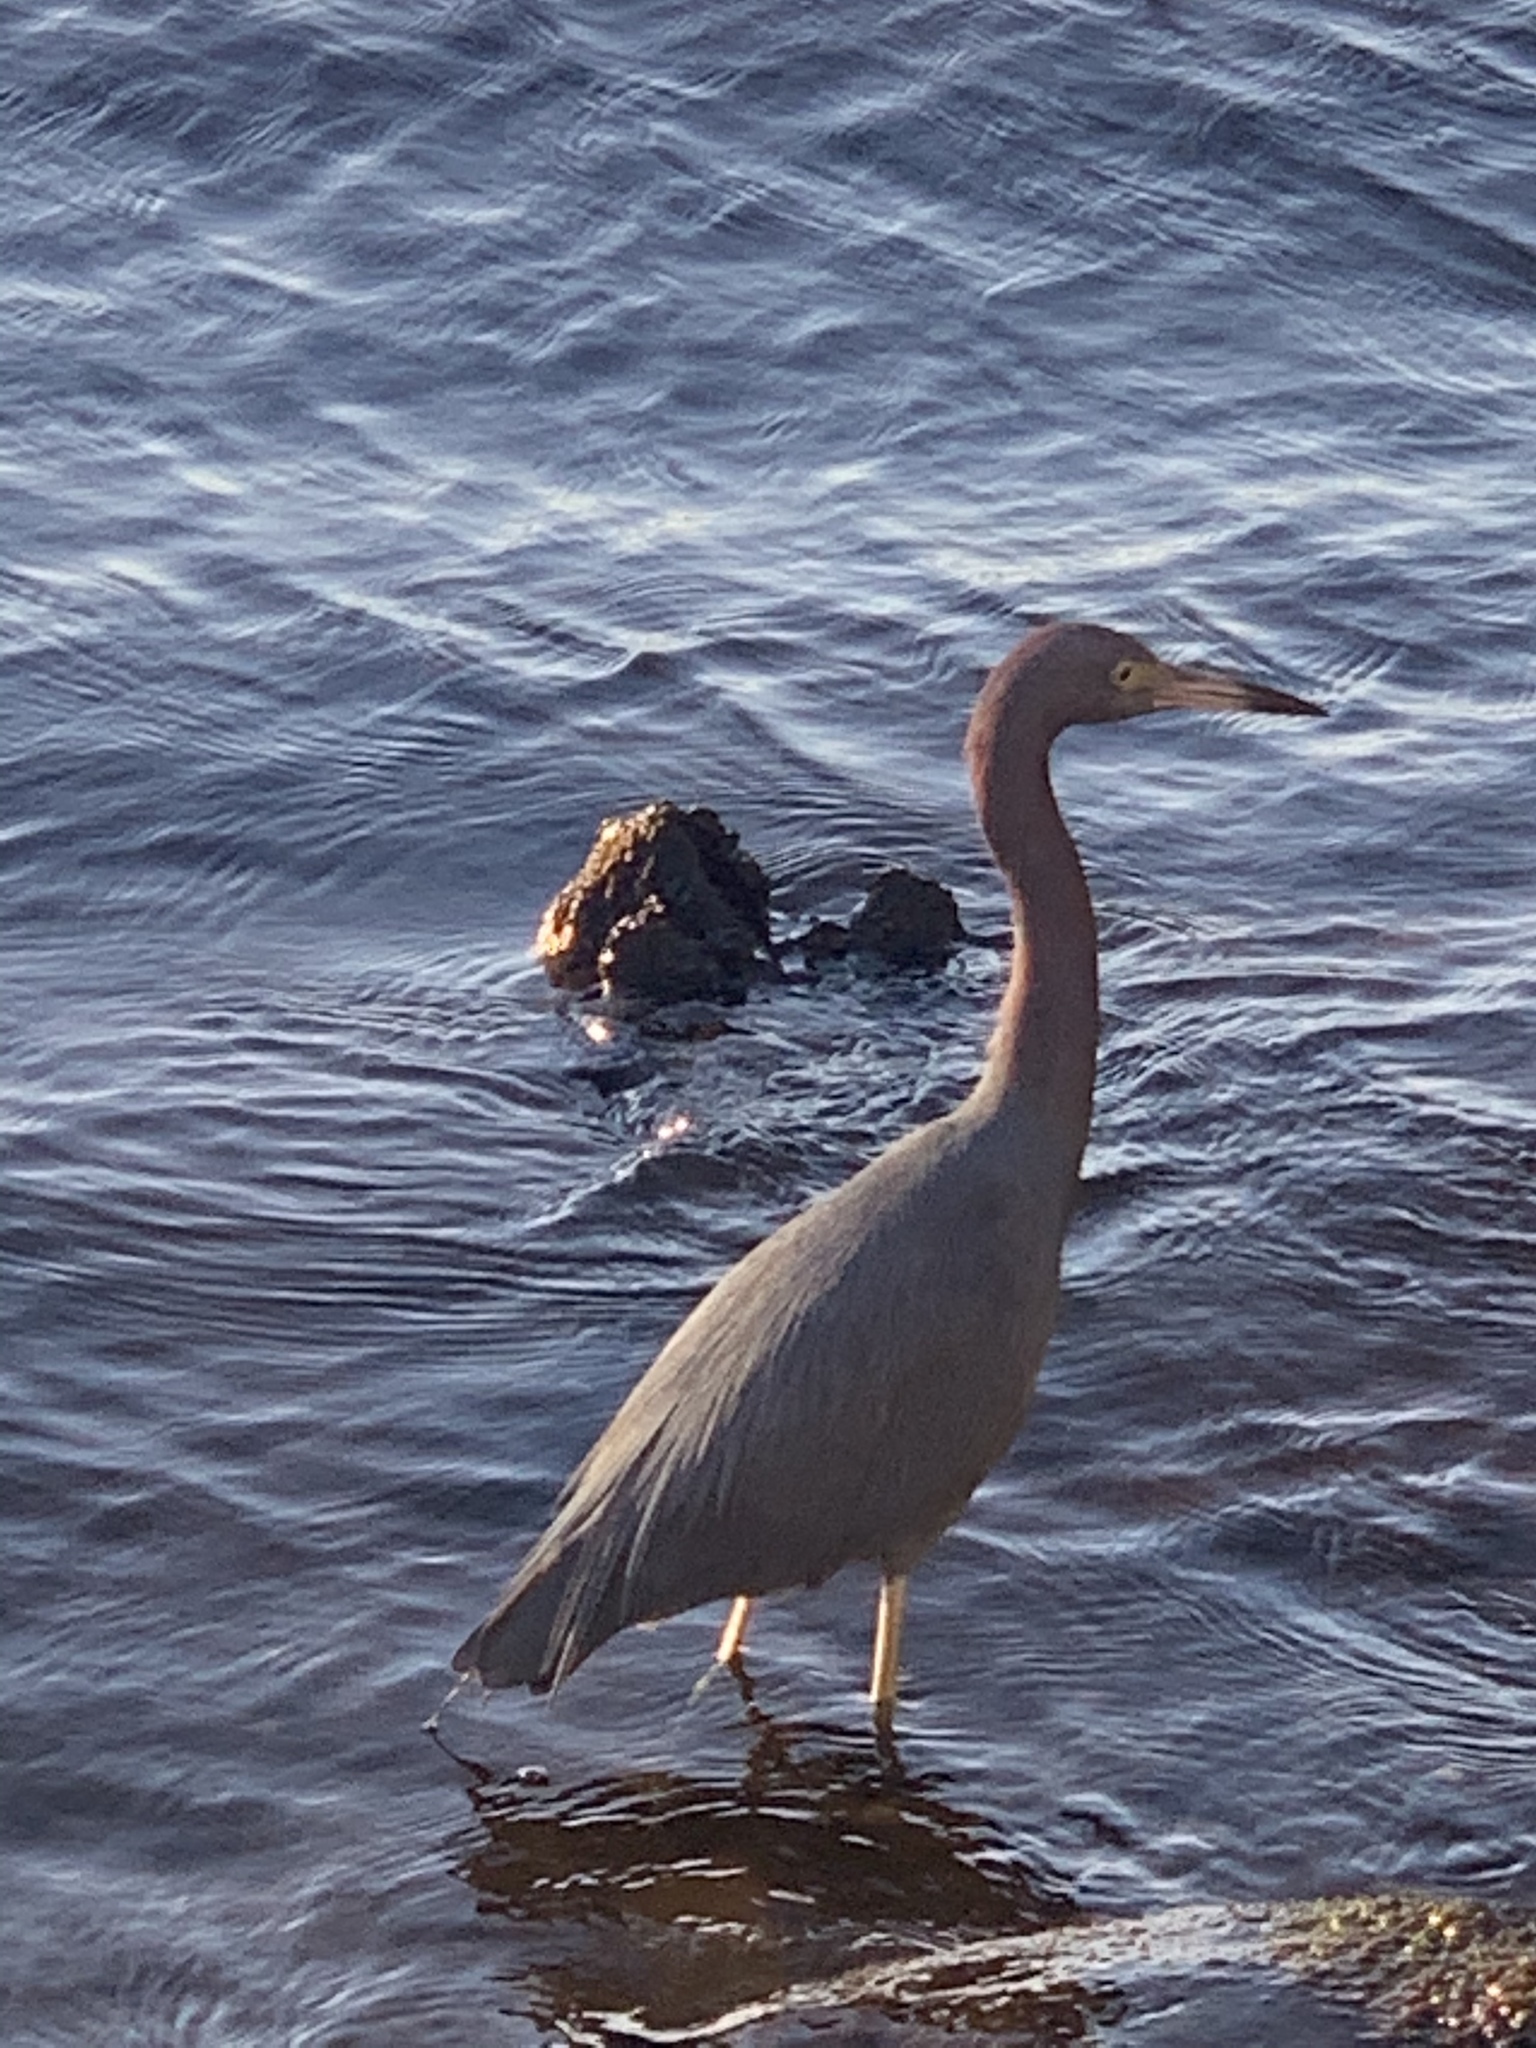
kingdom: Animalia
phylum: Chordata
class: Aves
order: Pelecaniformes
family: Ardeidae
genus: Egretta
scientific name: Egretta caerulea
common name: Little blue heron
